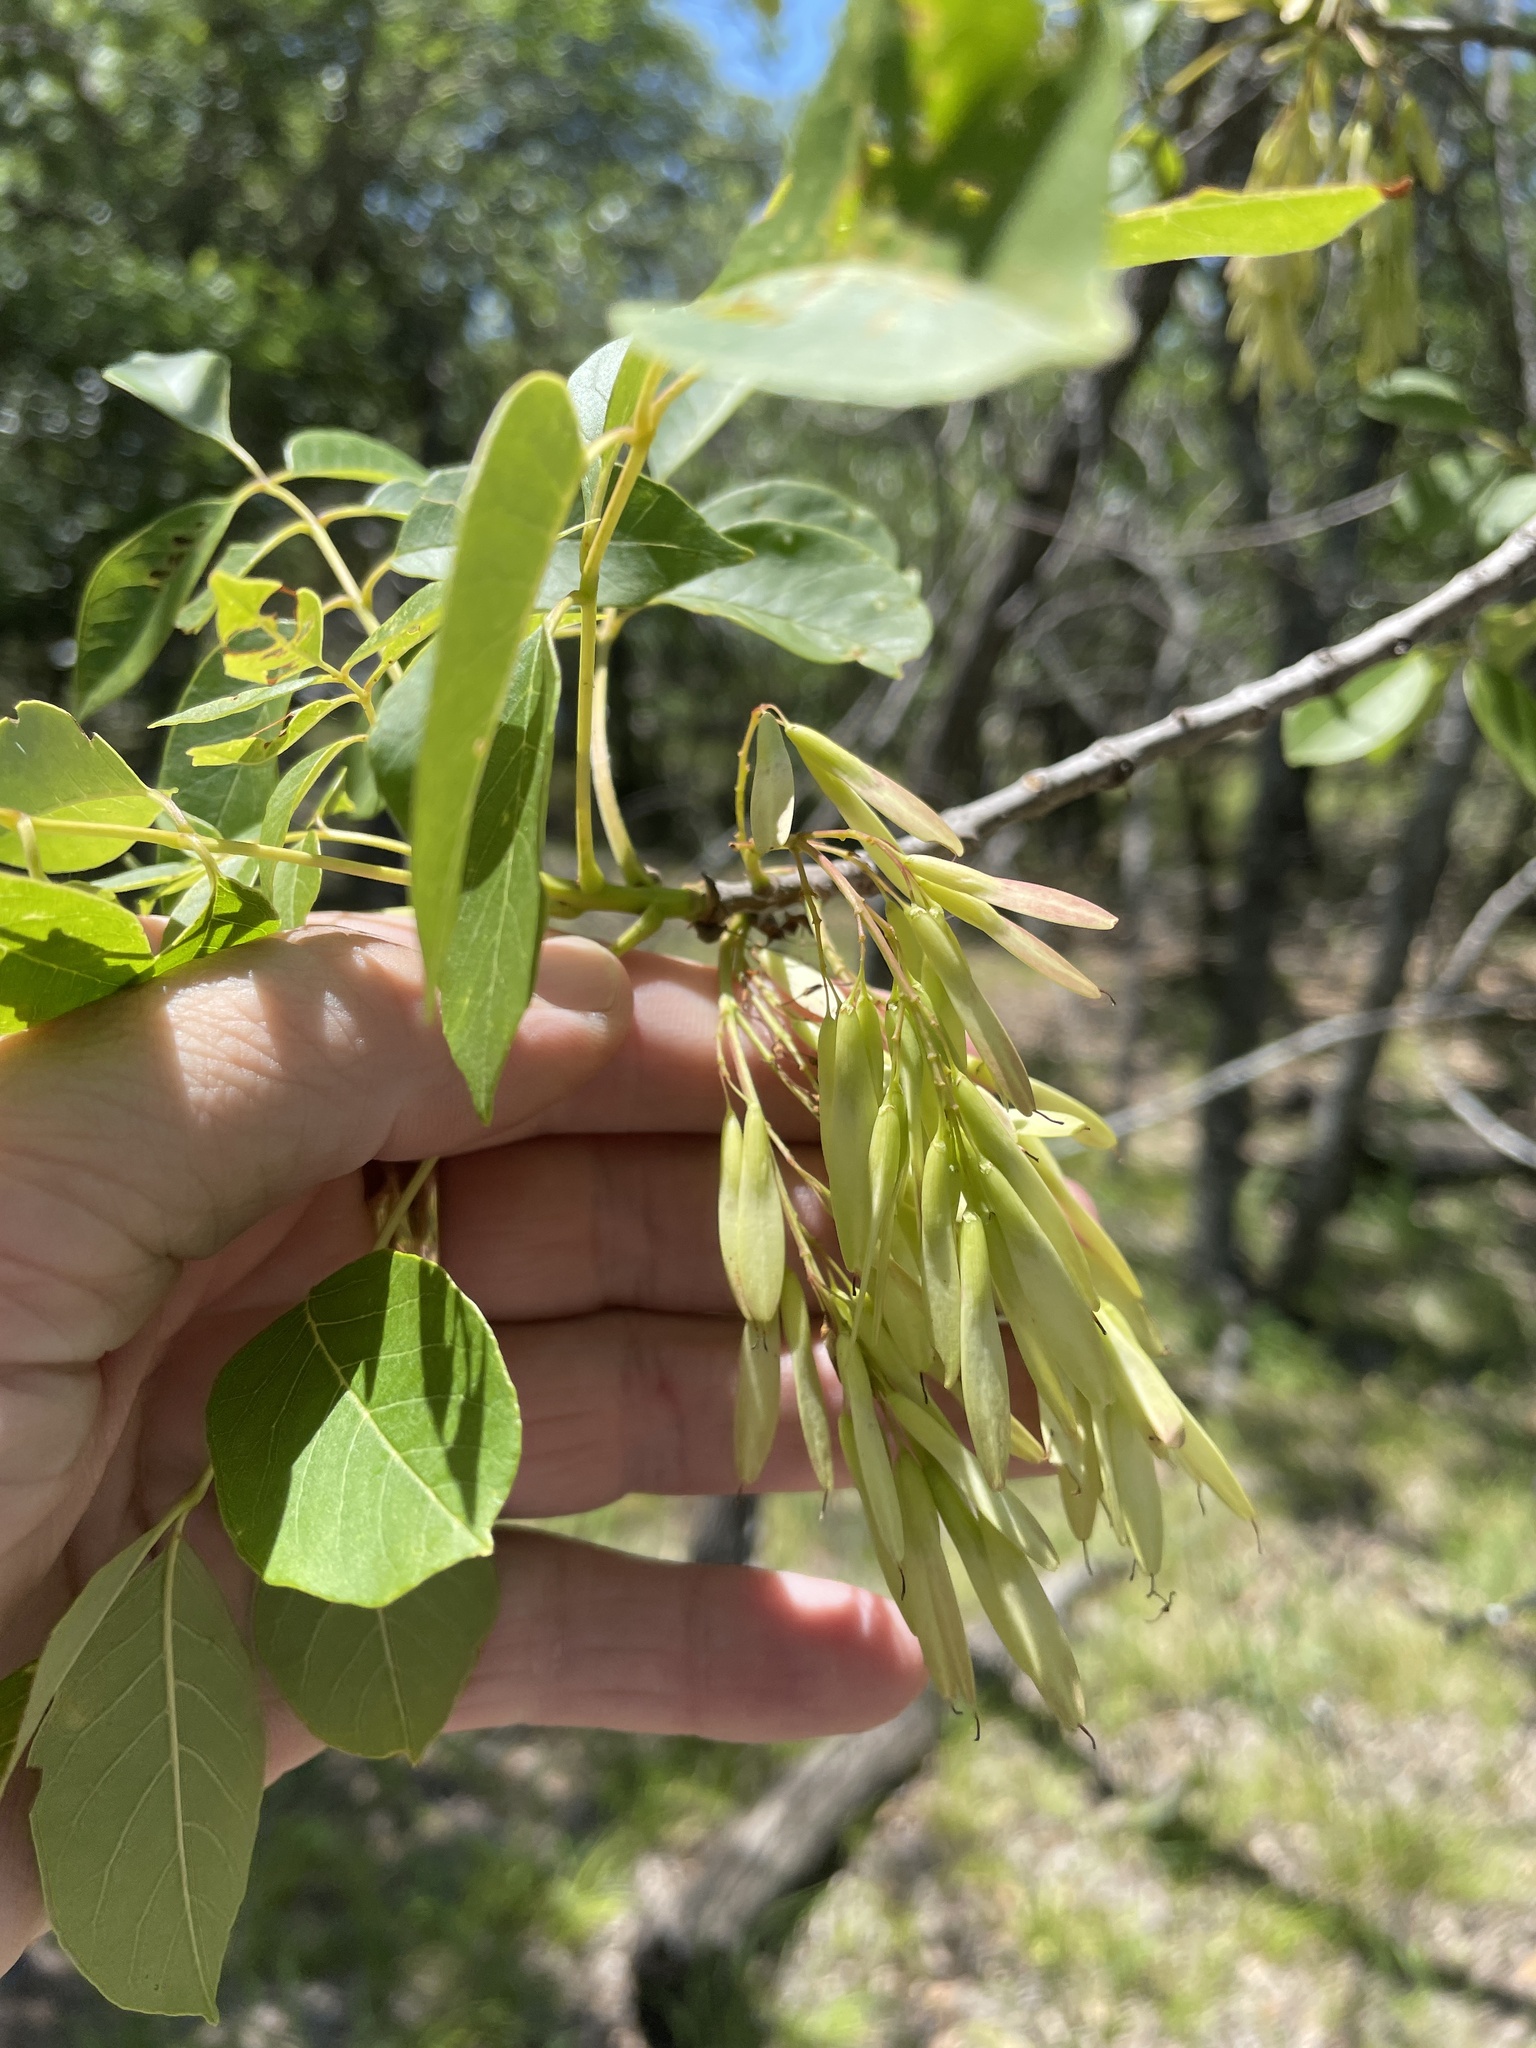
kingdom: Plantae
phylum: Tracheophyta
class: Magnoliopsida
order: Lamiales
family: Oleaceae
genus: Fraxinus
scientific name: Fraxinus albicans
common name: Texas ash
